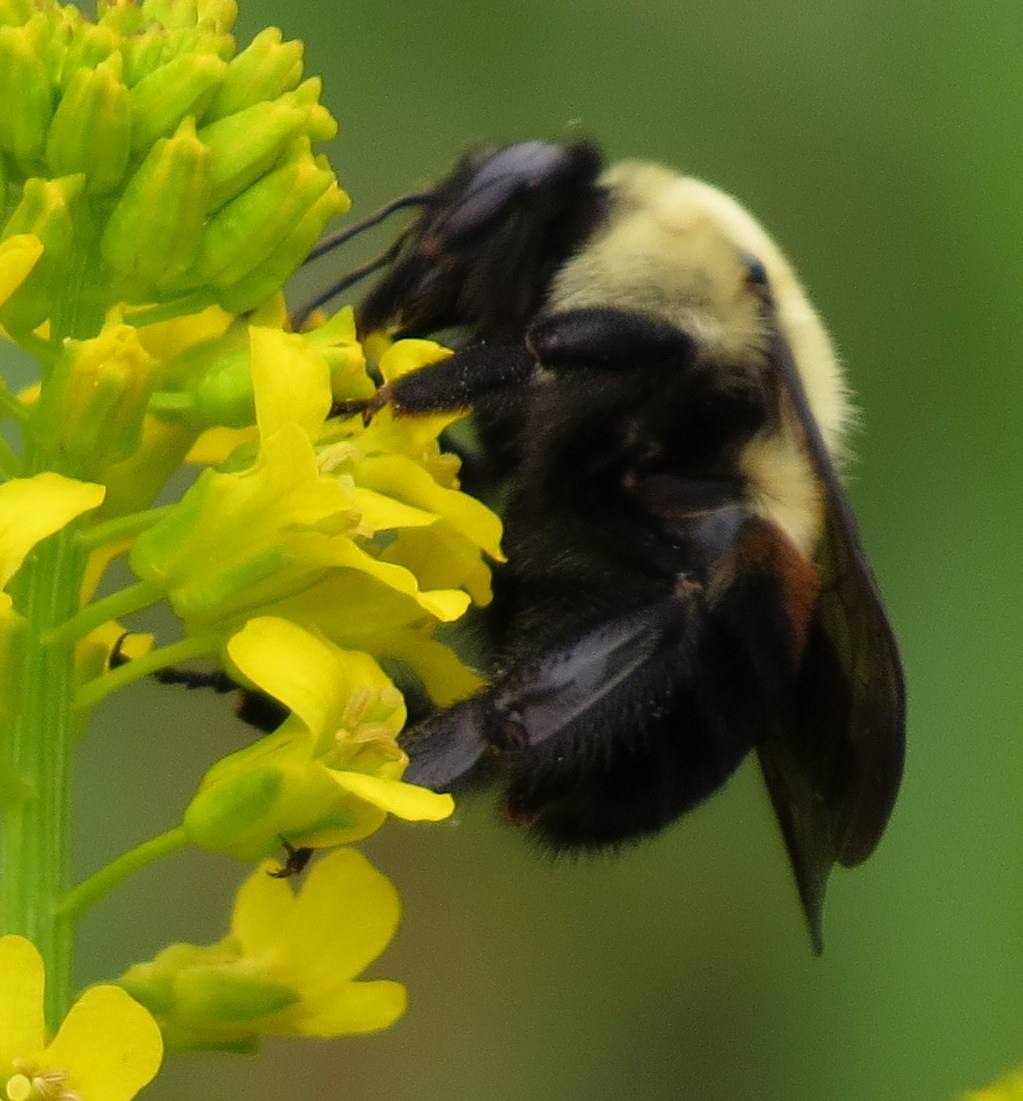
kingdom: Animalia
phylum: Arthropoda
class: Insecta
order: Hymenoptera
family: Apidae
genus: Bombus
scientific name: Bombus griseocollis
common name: Brown-belted bumble bee
